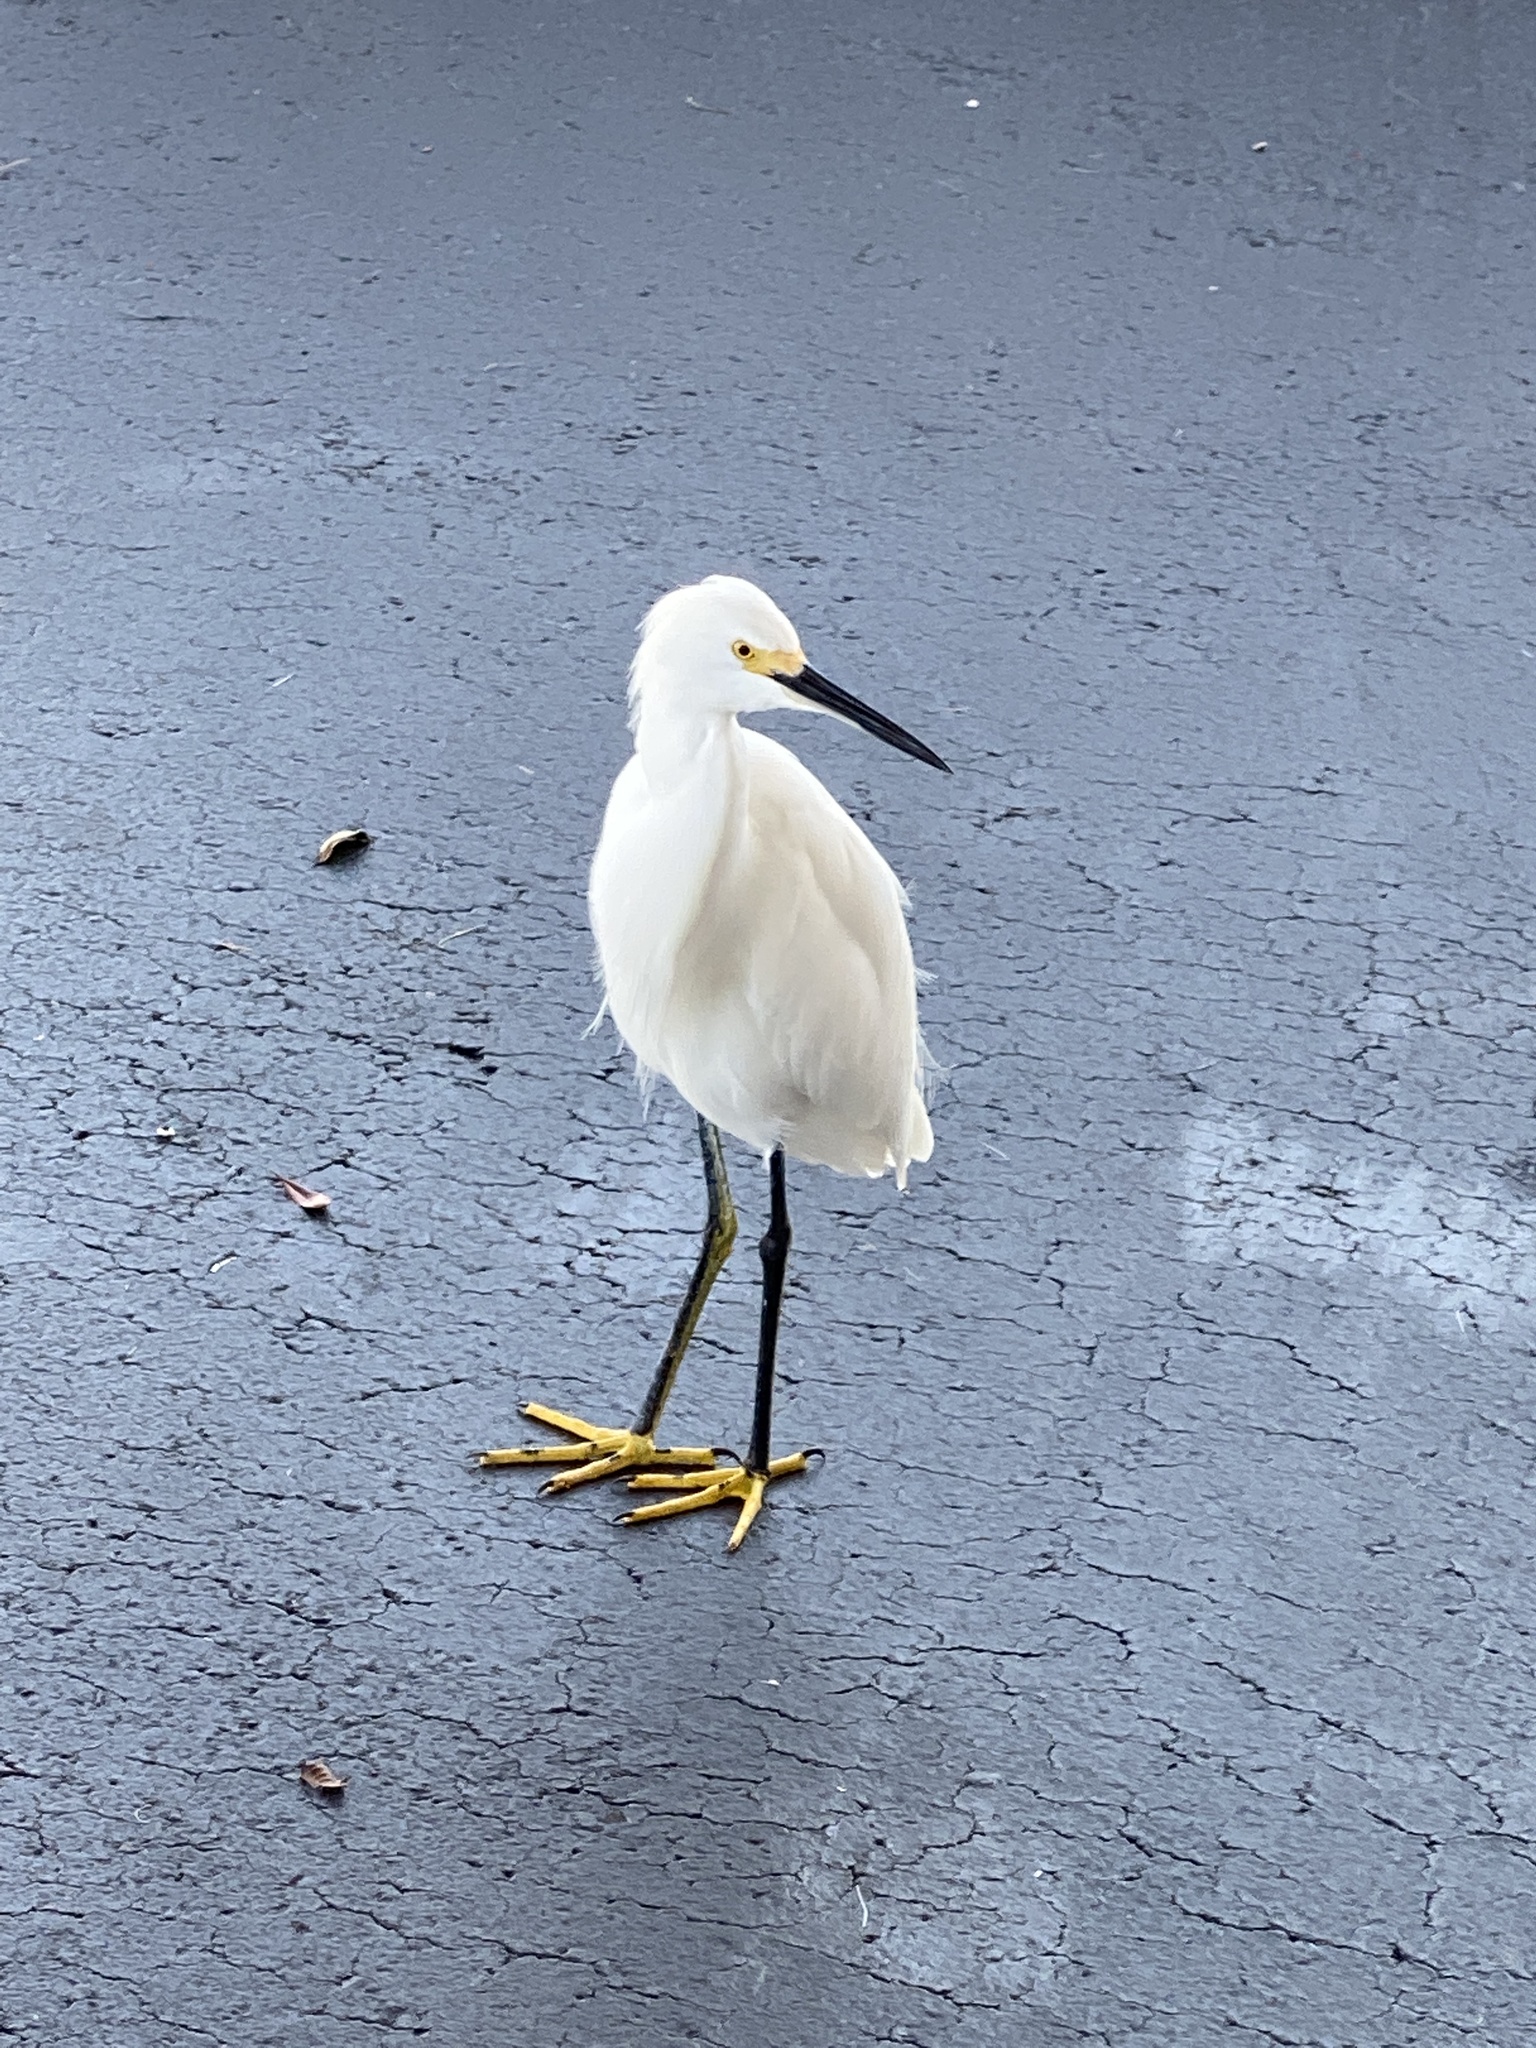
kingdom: Animalia
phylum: Chordata
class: Aves
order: Pelecaniformes
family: Ardeidae
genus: Egretta
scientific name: Egretta thula
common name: Snowy egret
